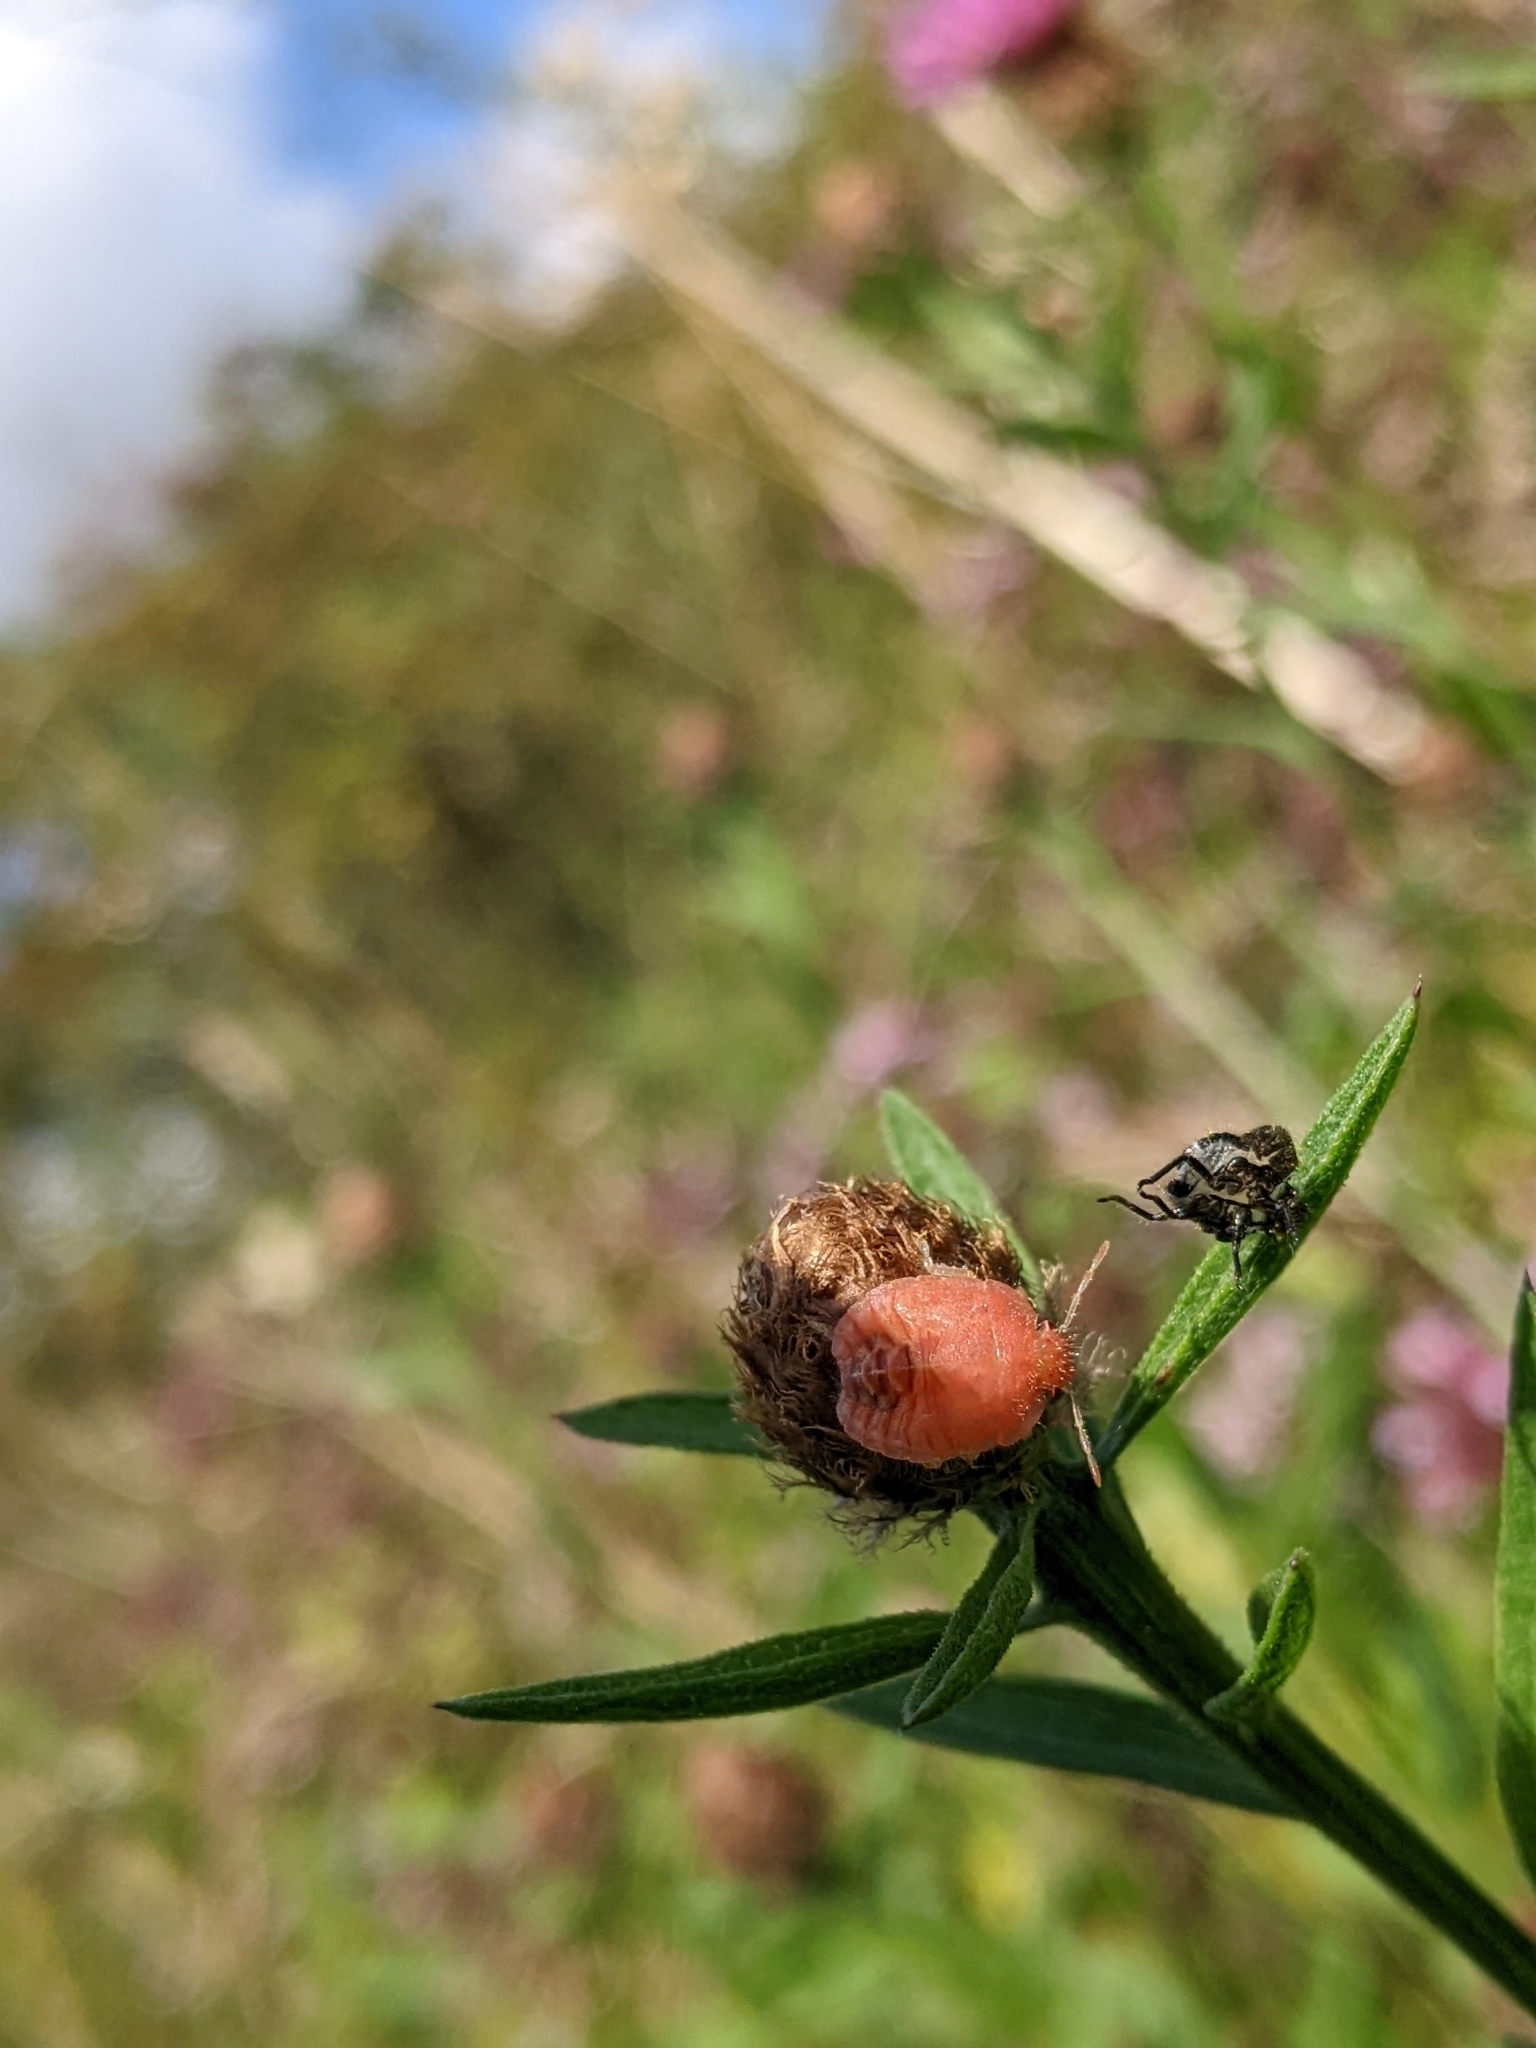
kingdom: Animalia
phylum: Arthropoda
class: Insecta
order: Hemiptera
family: Pentatomidae
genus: Dolycoris
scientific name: Dolycoris baccarum
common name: Sloe bug
